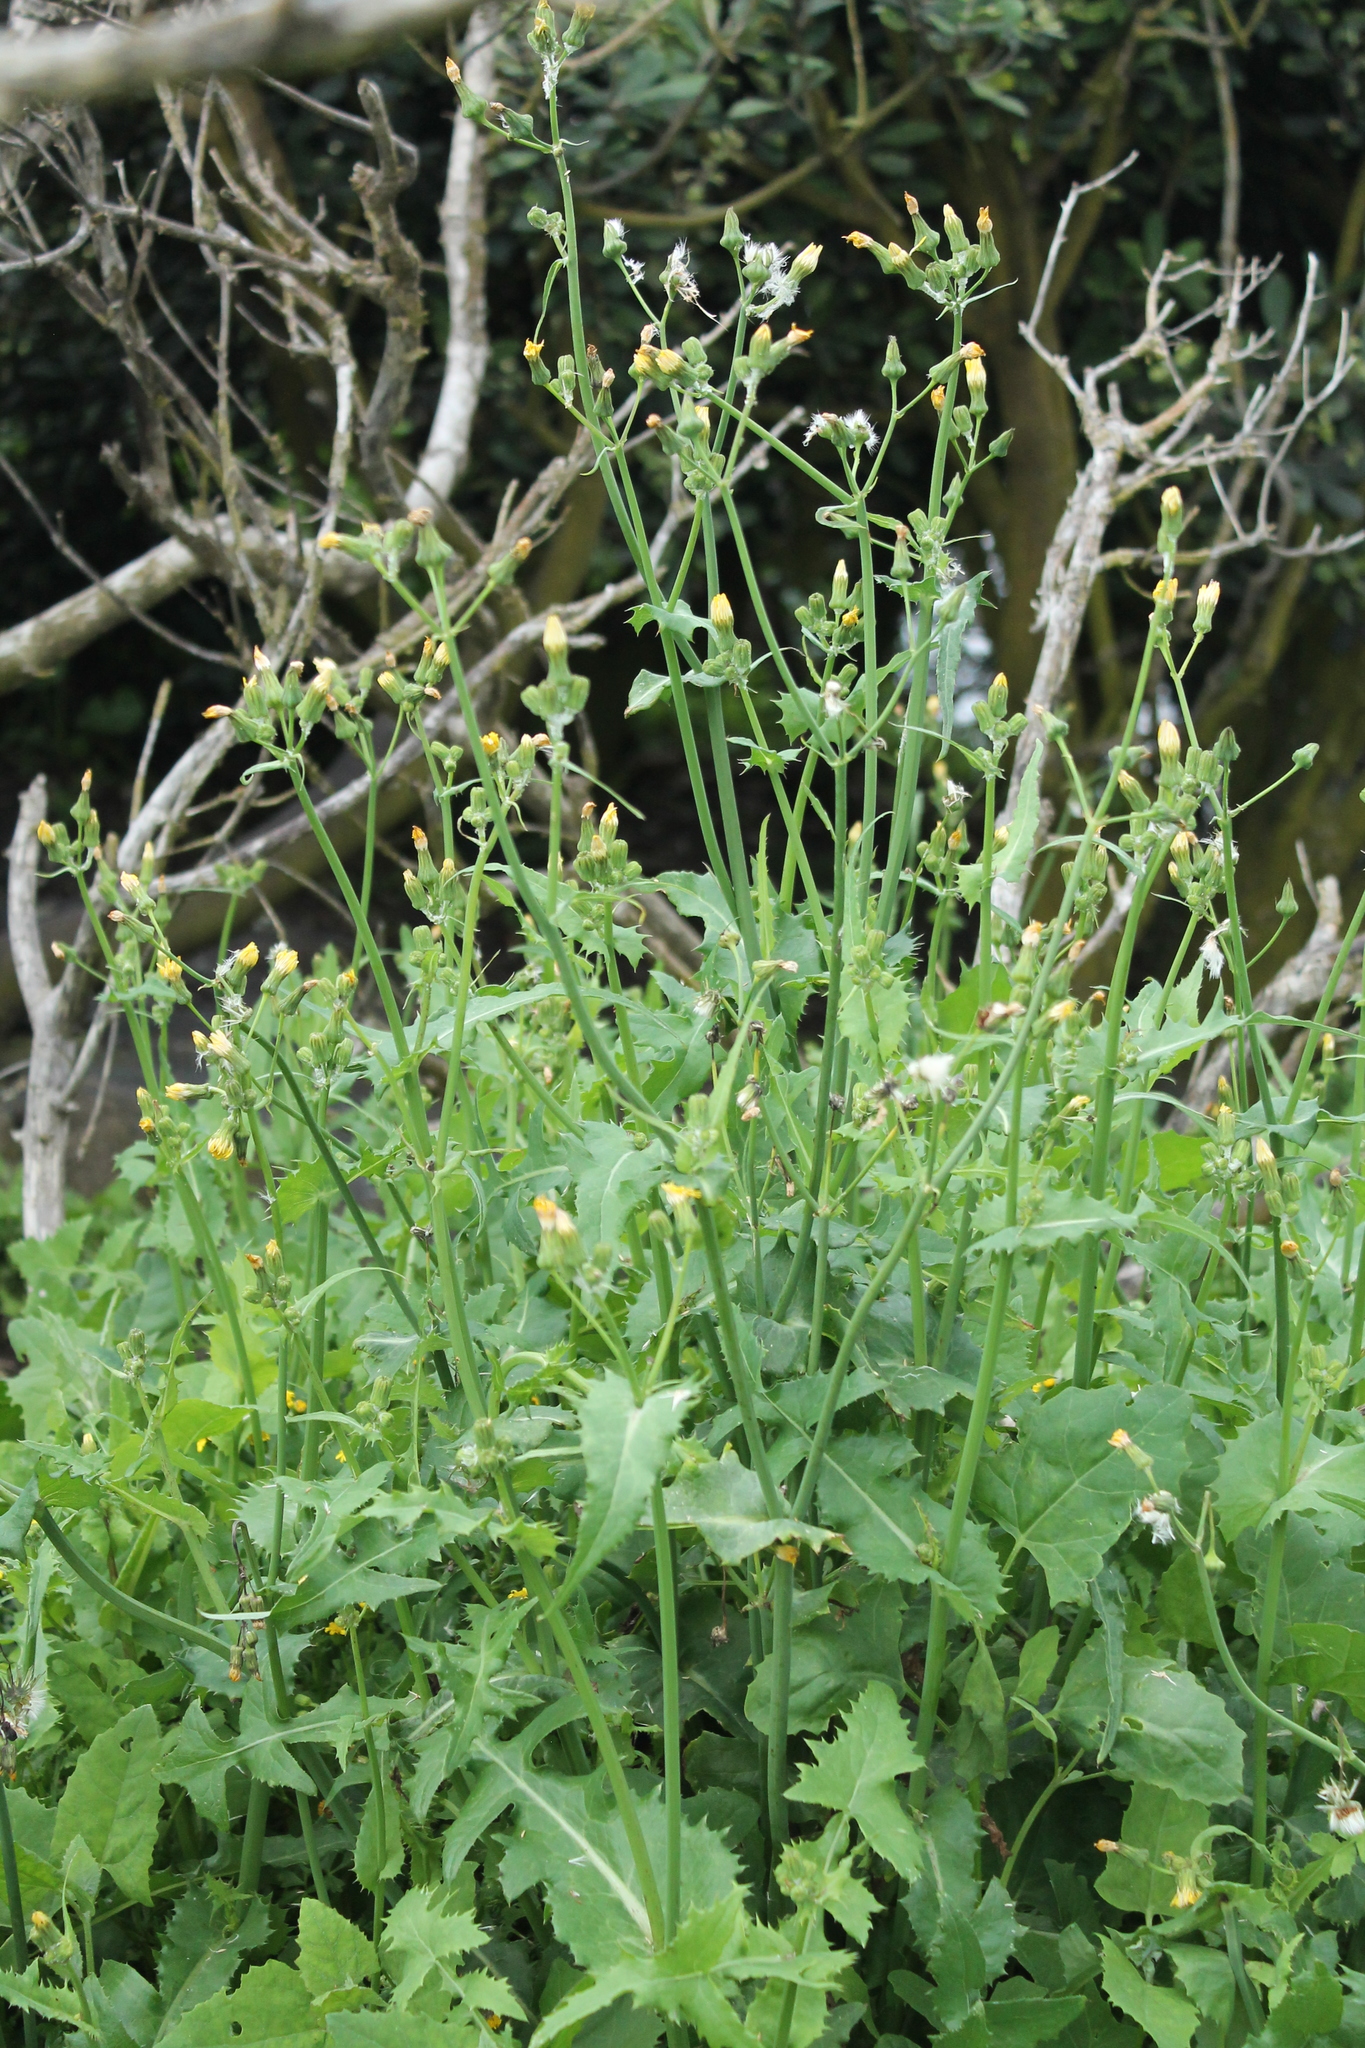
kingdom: Plantae
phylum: Tracheophyta
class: Magnoliopsida
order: Asterales
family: Asteraceae
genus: Sonchus
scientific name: Sonchus oleraceus
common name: Common sowthistle
